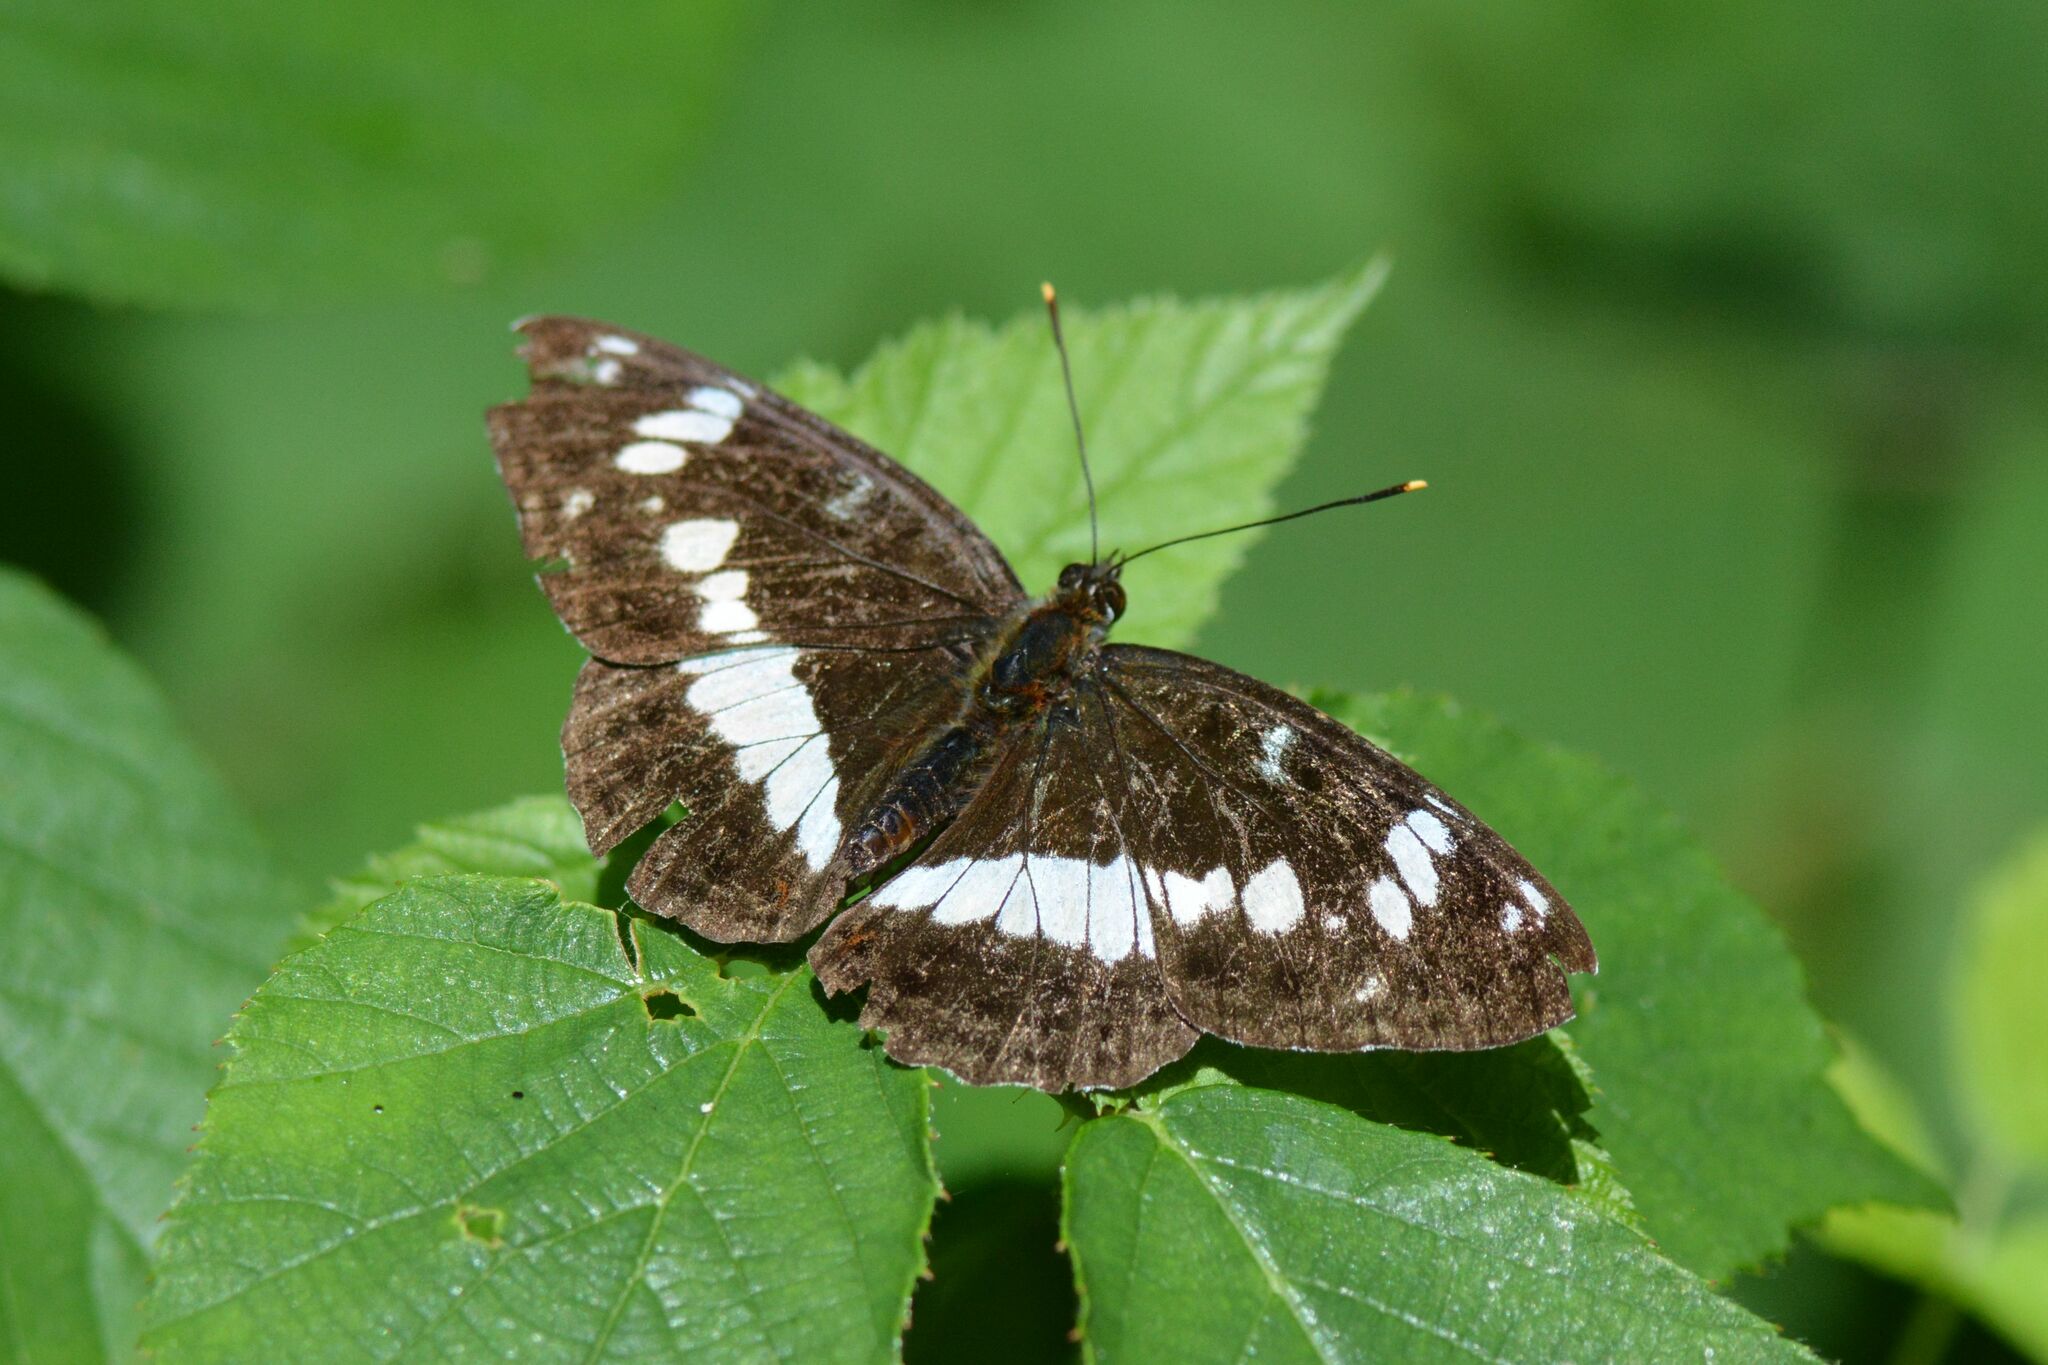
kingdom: Animalia
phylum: Arthropoda
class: Insecta
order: Lepidoptera
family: Nymphalidae
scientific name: Nymphalidae
